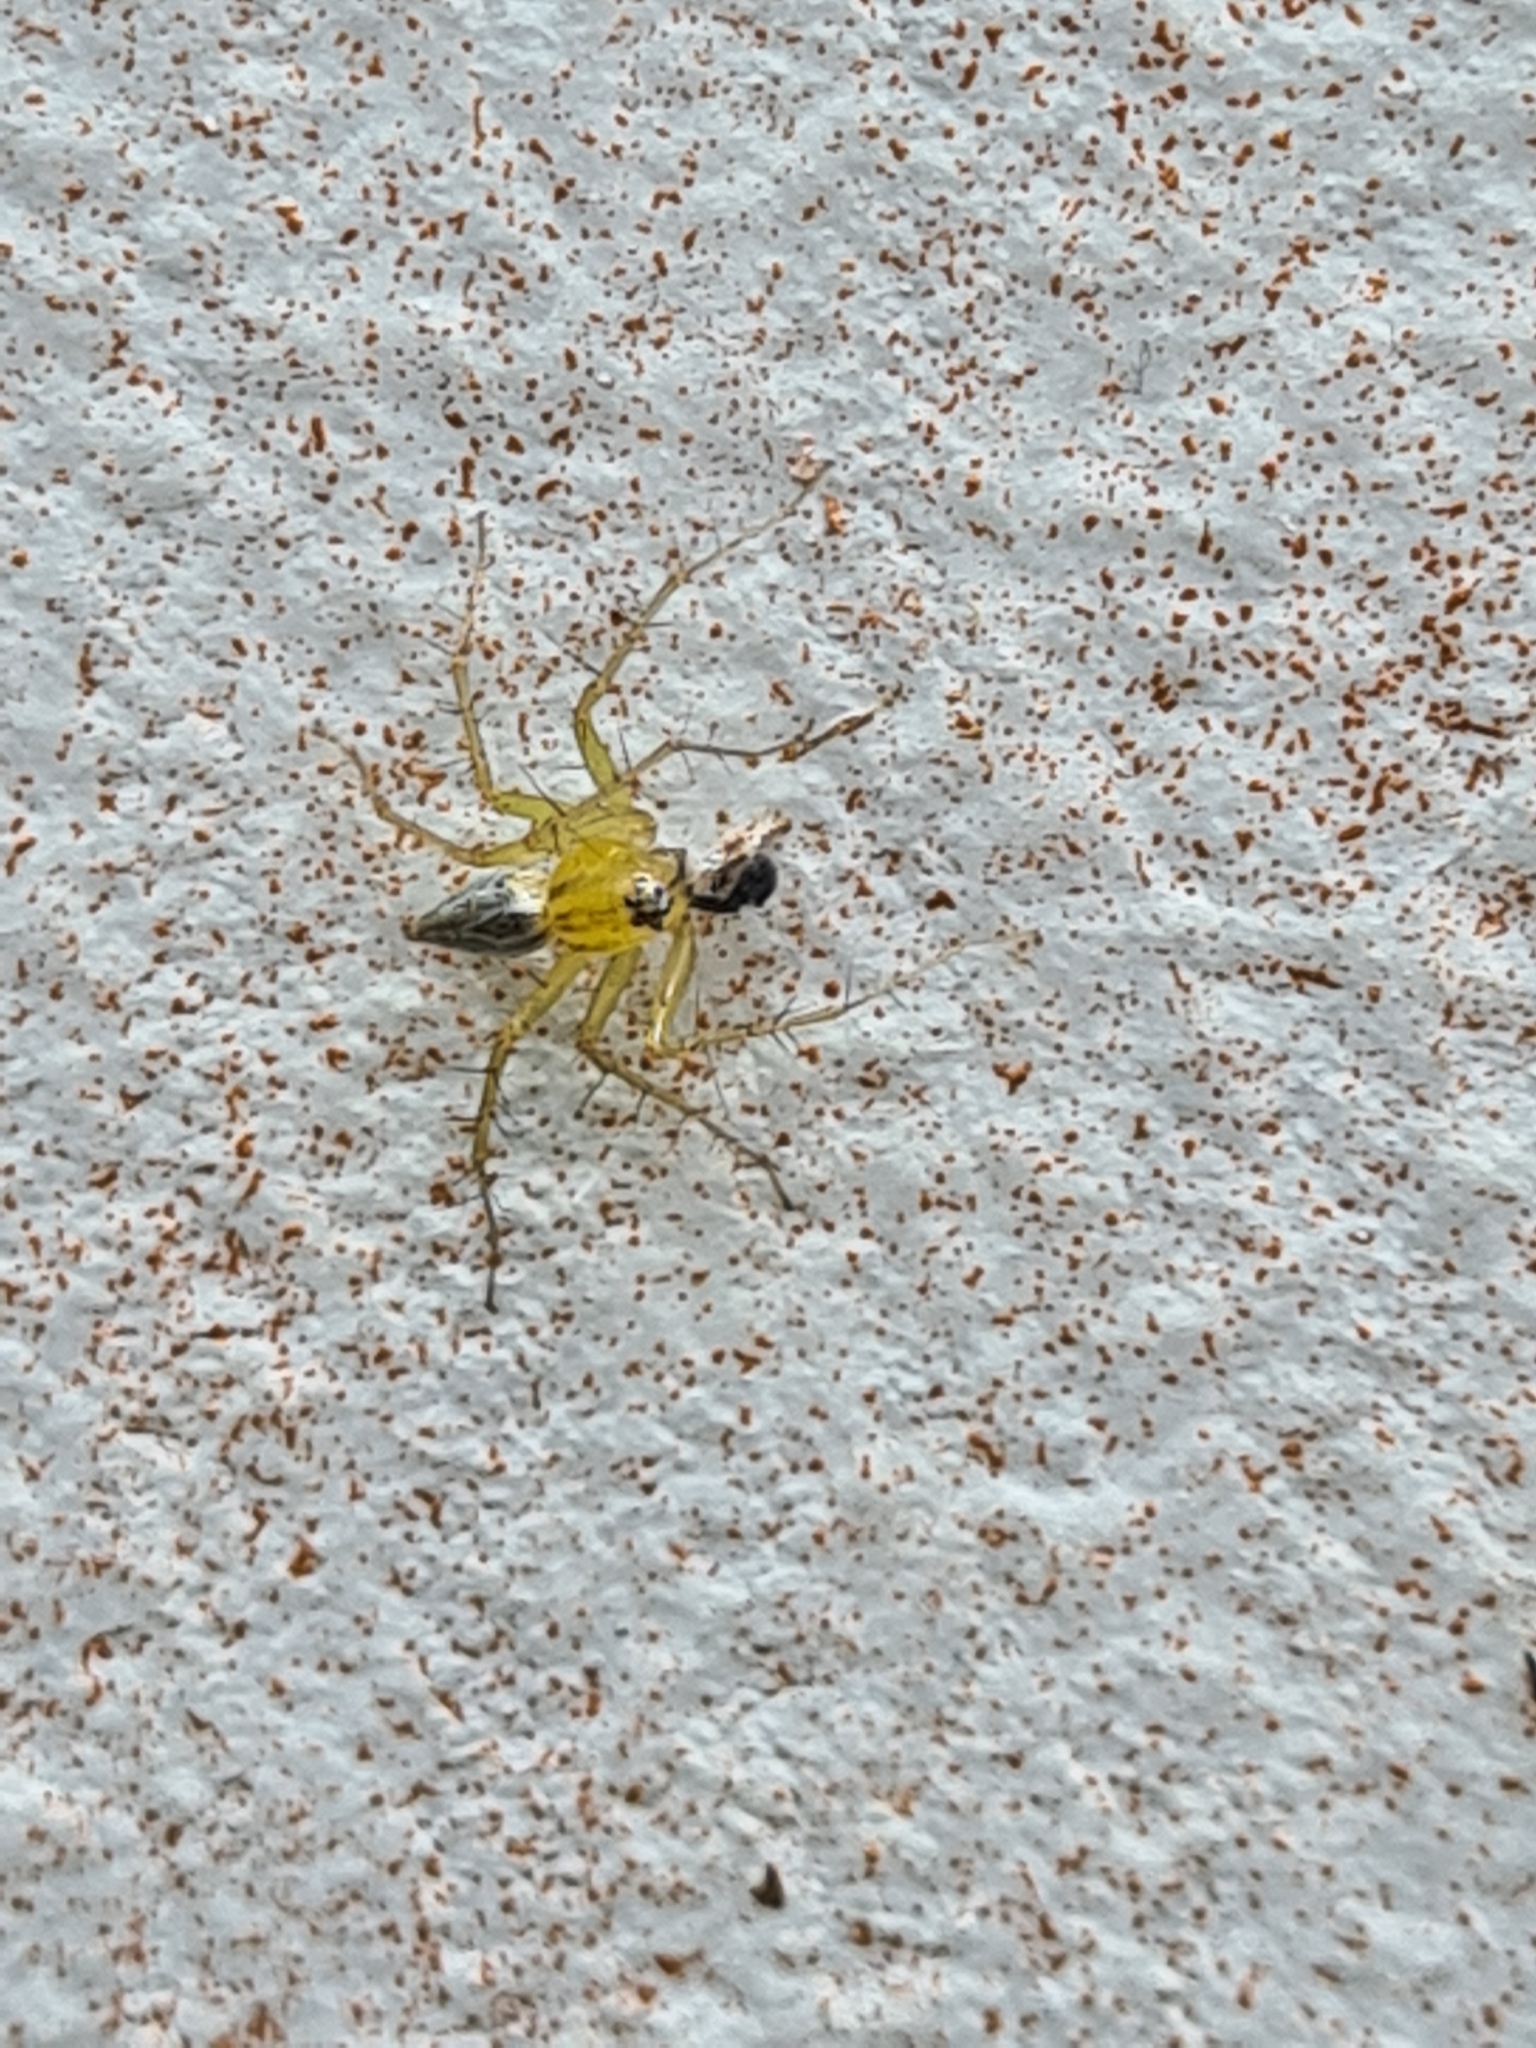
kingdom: Animalia
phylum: Arthropoda
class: Arachnida
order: Araneae
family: Oxyopidae
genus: Oxyopes
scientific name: Oxyopes salticus
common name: Lynx spiders
